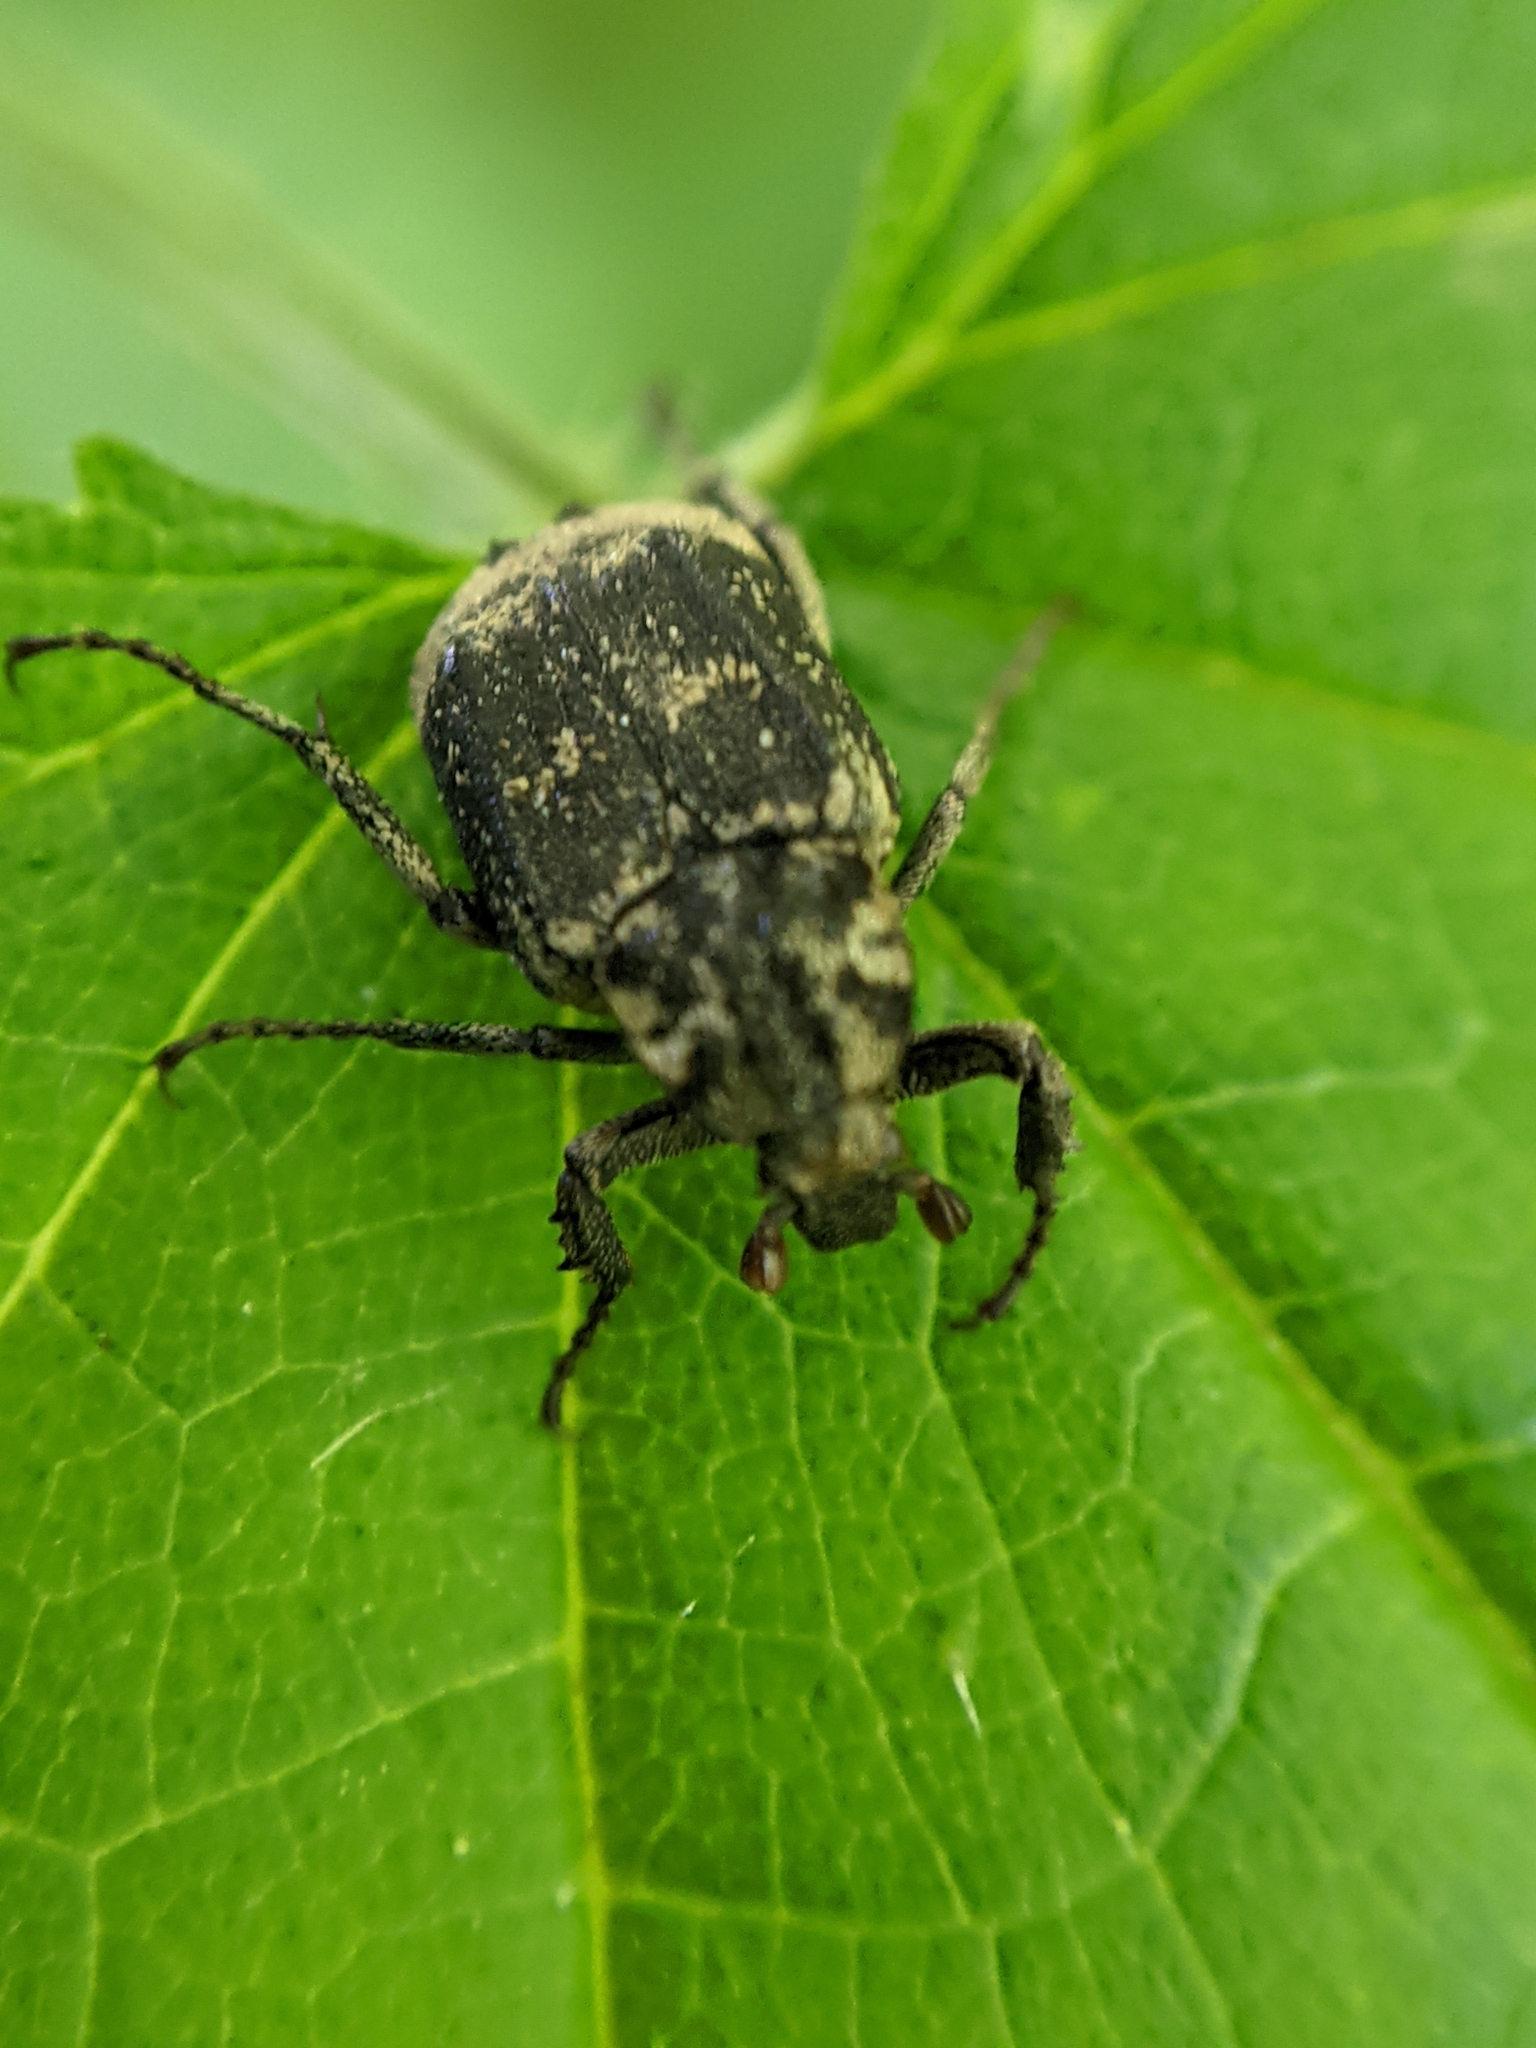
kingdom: Animalia
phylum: Arthropoda
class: Insecta
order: Coleoptera
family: Scarabaeidae
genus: Valgus
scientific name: Valgus hemipterus
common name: Bug flower chafer
